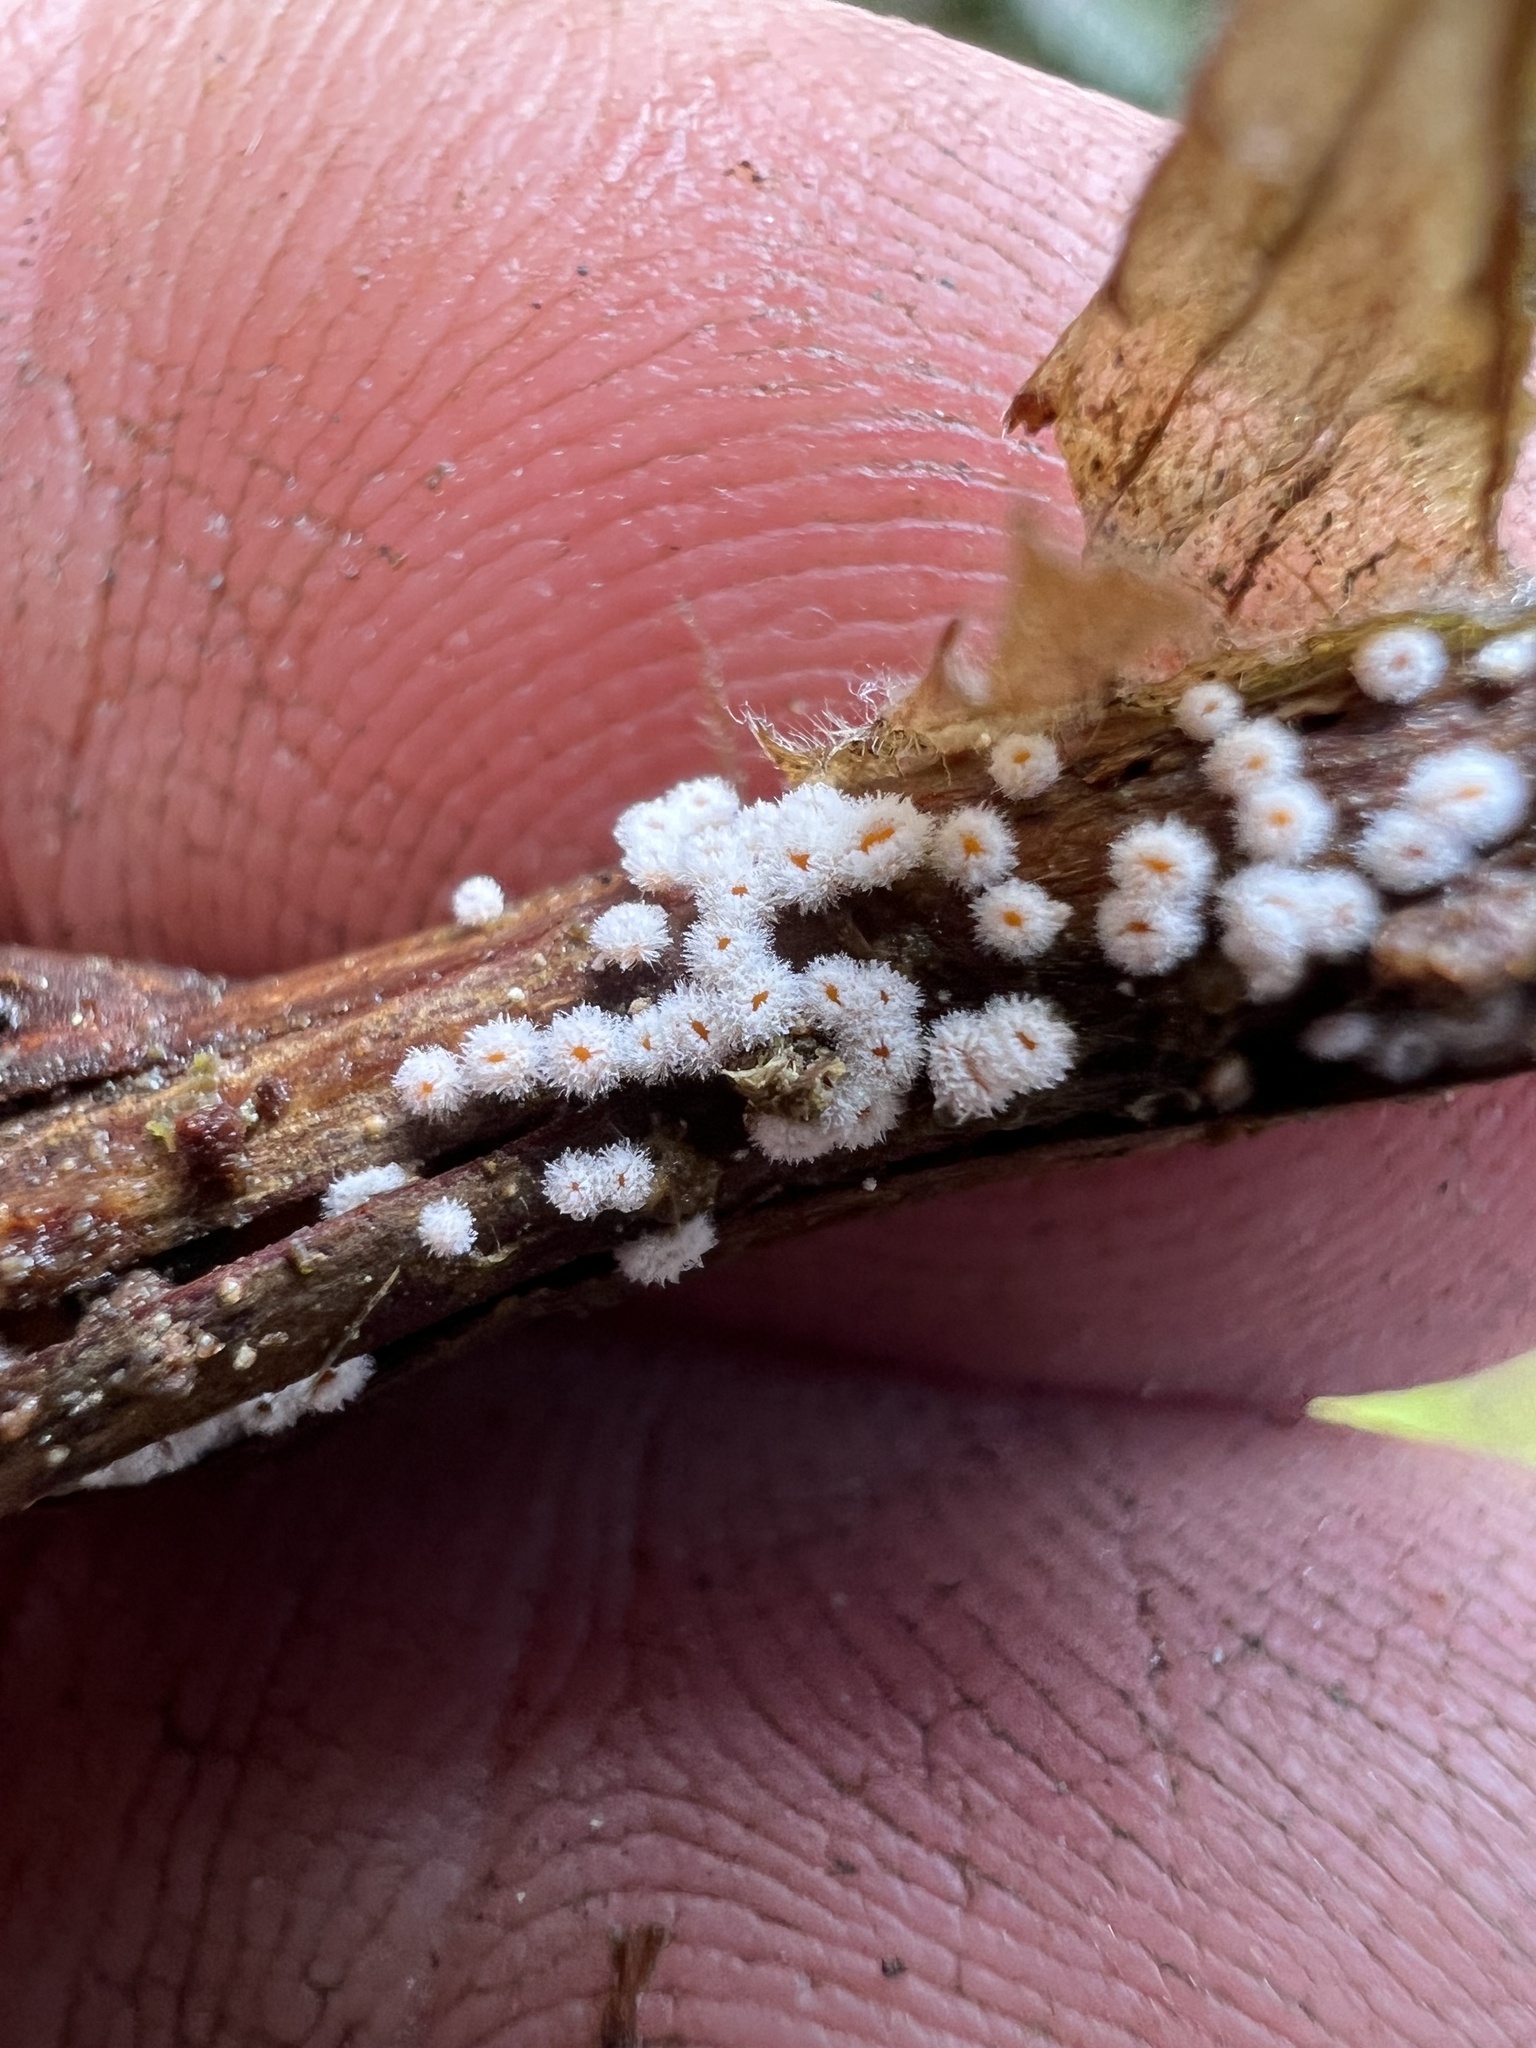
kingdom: Fungi
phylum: Ascomycota
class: Leotiomycetes
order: Helotiales
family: Lachnaceae
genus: Capitotricha
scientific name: Capitotricha bicolor
